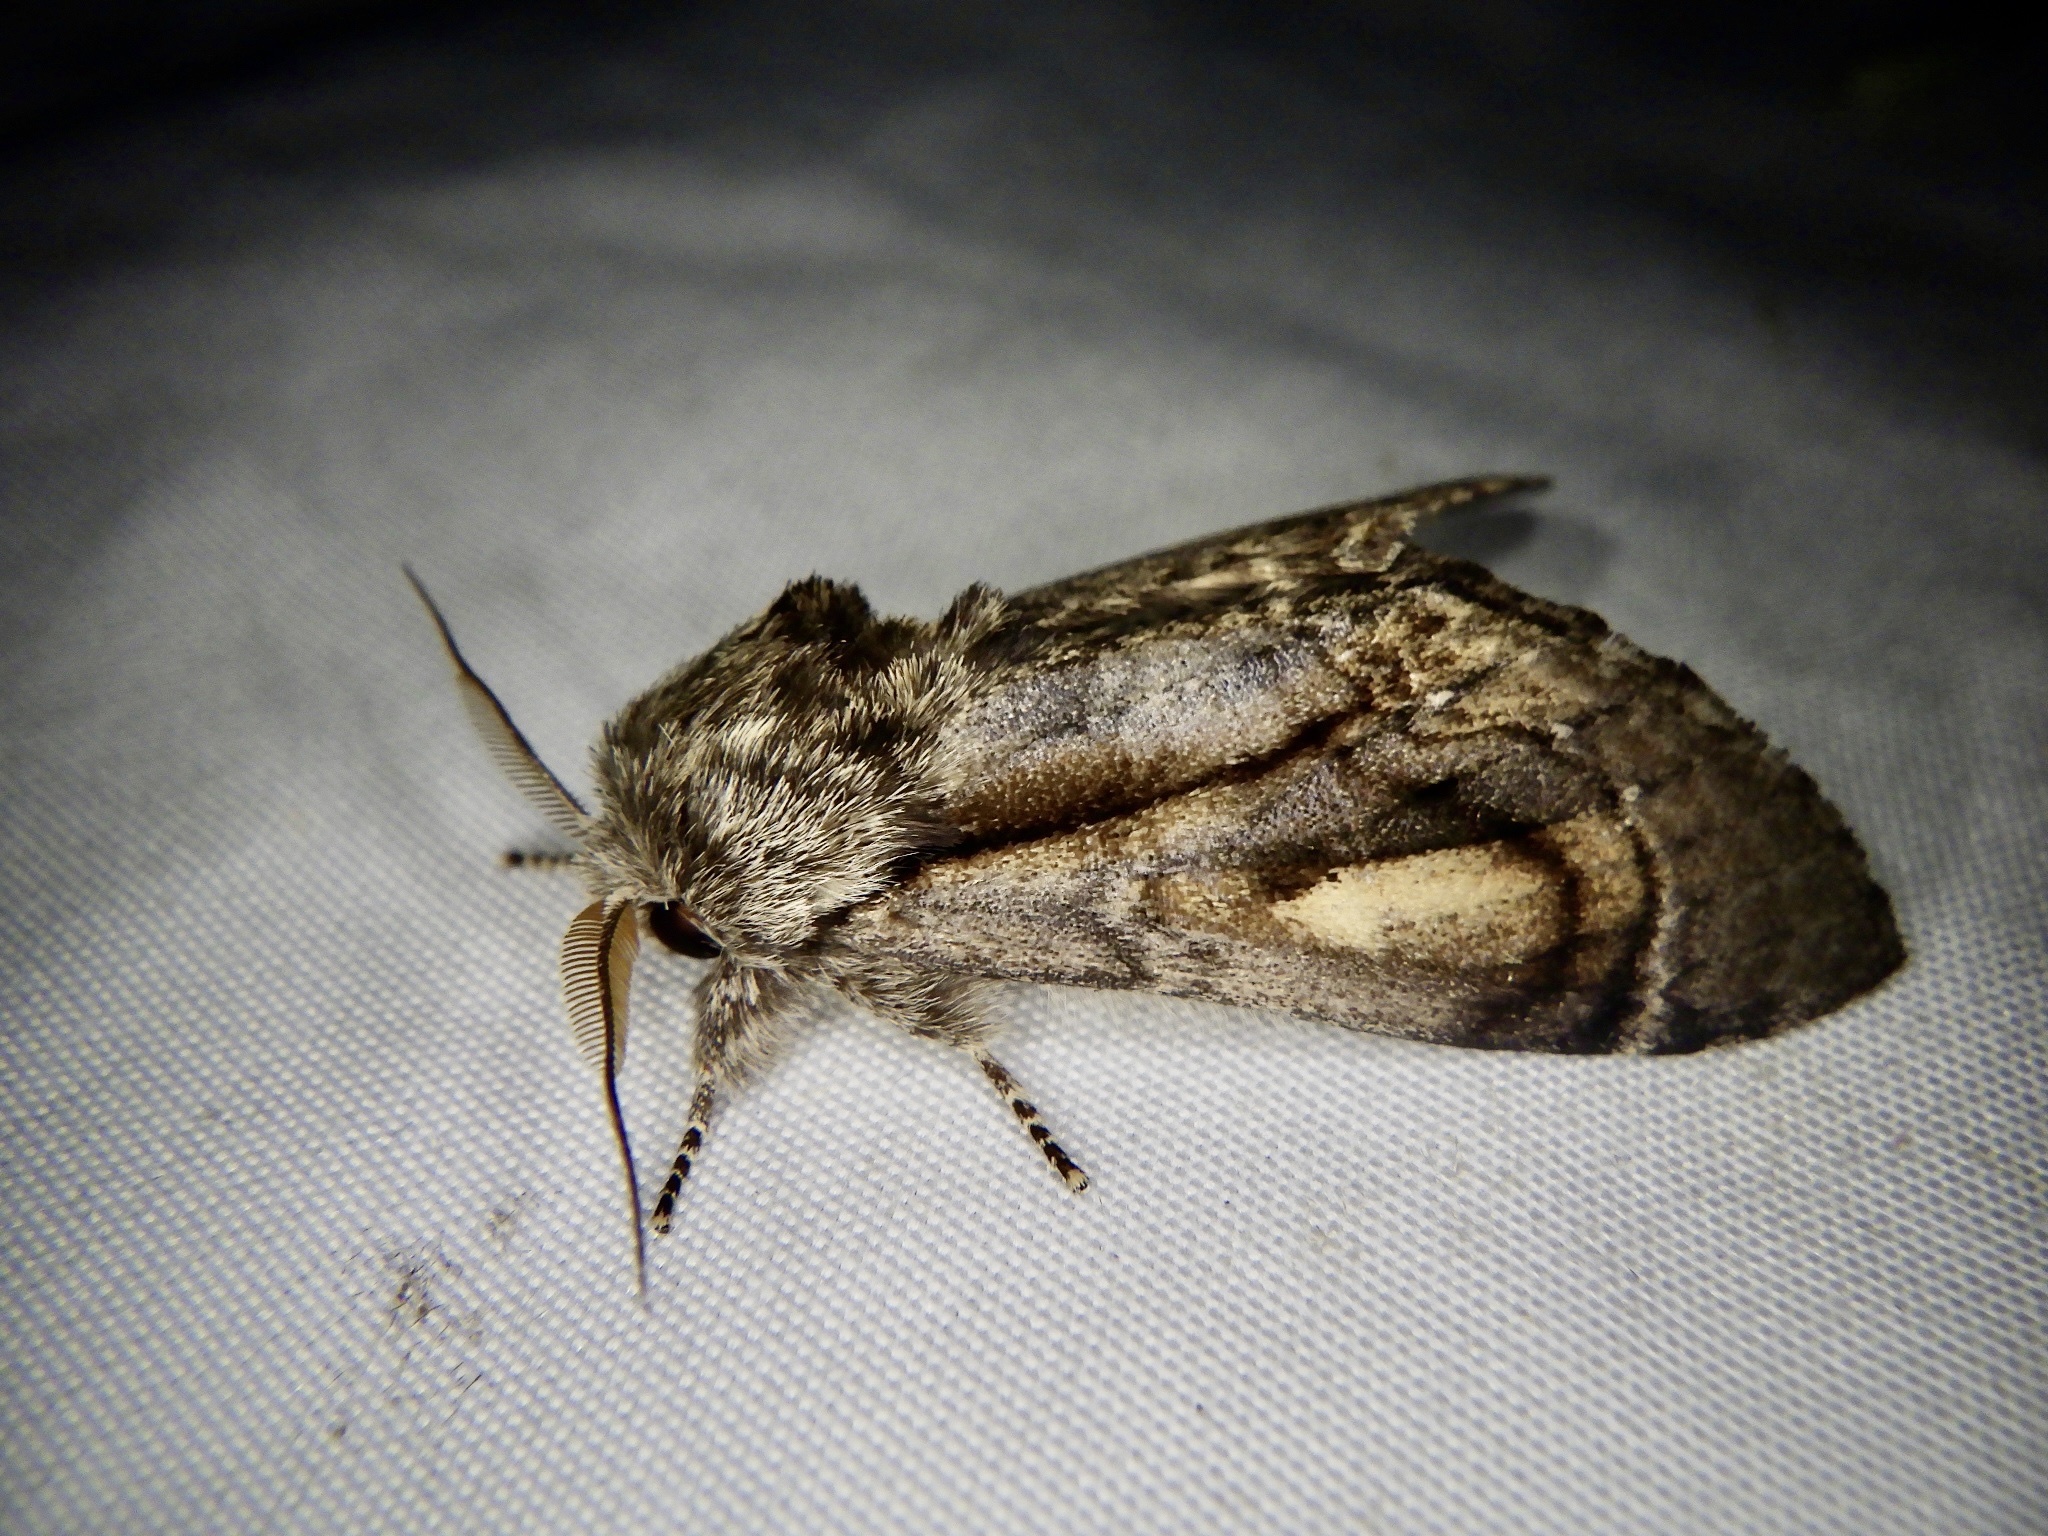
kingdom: Animalia
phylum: Arthropoda
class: Insecta
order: Lepidoptera
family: Notodontidae
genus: Fentonia
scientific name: Fentonia ocypete
